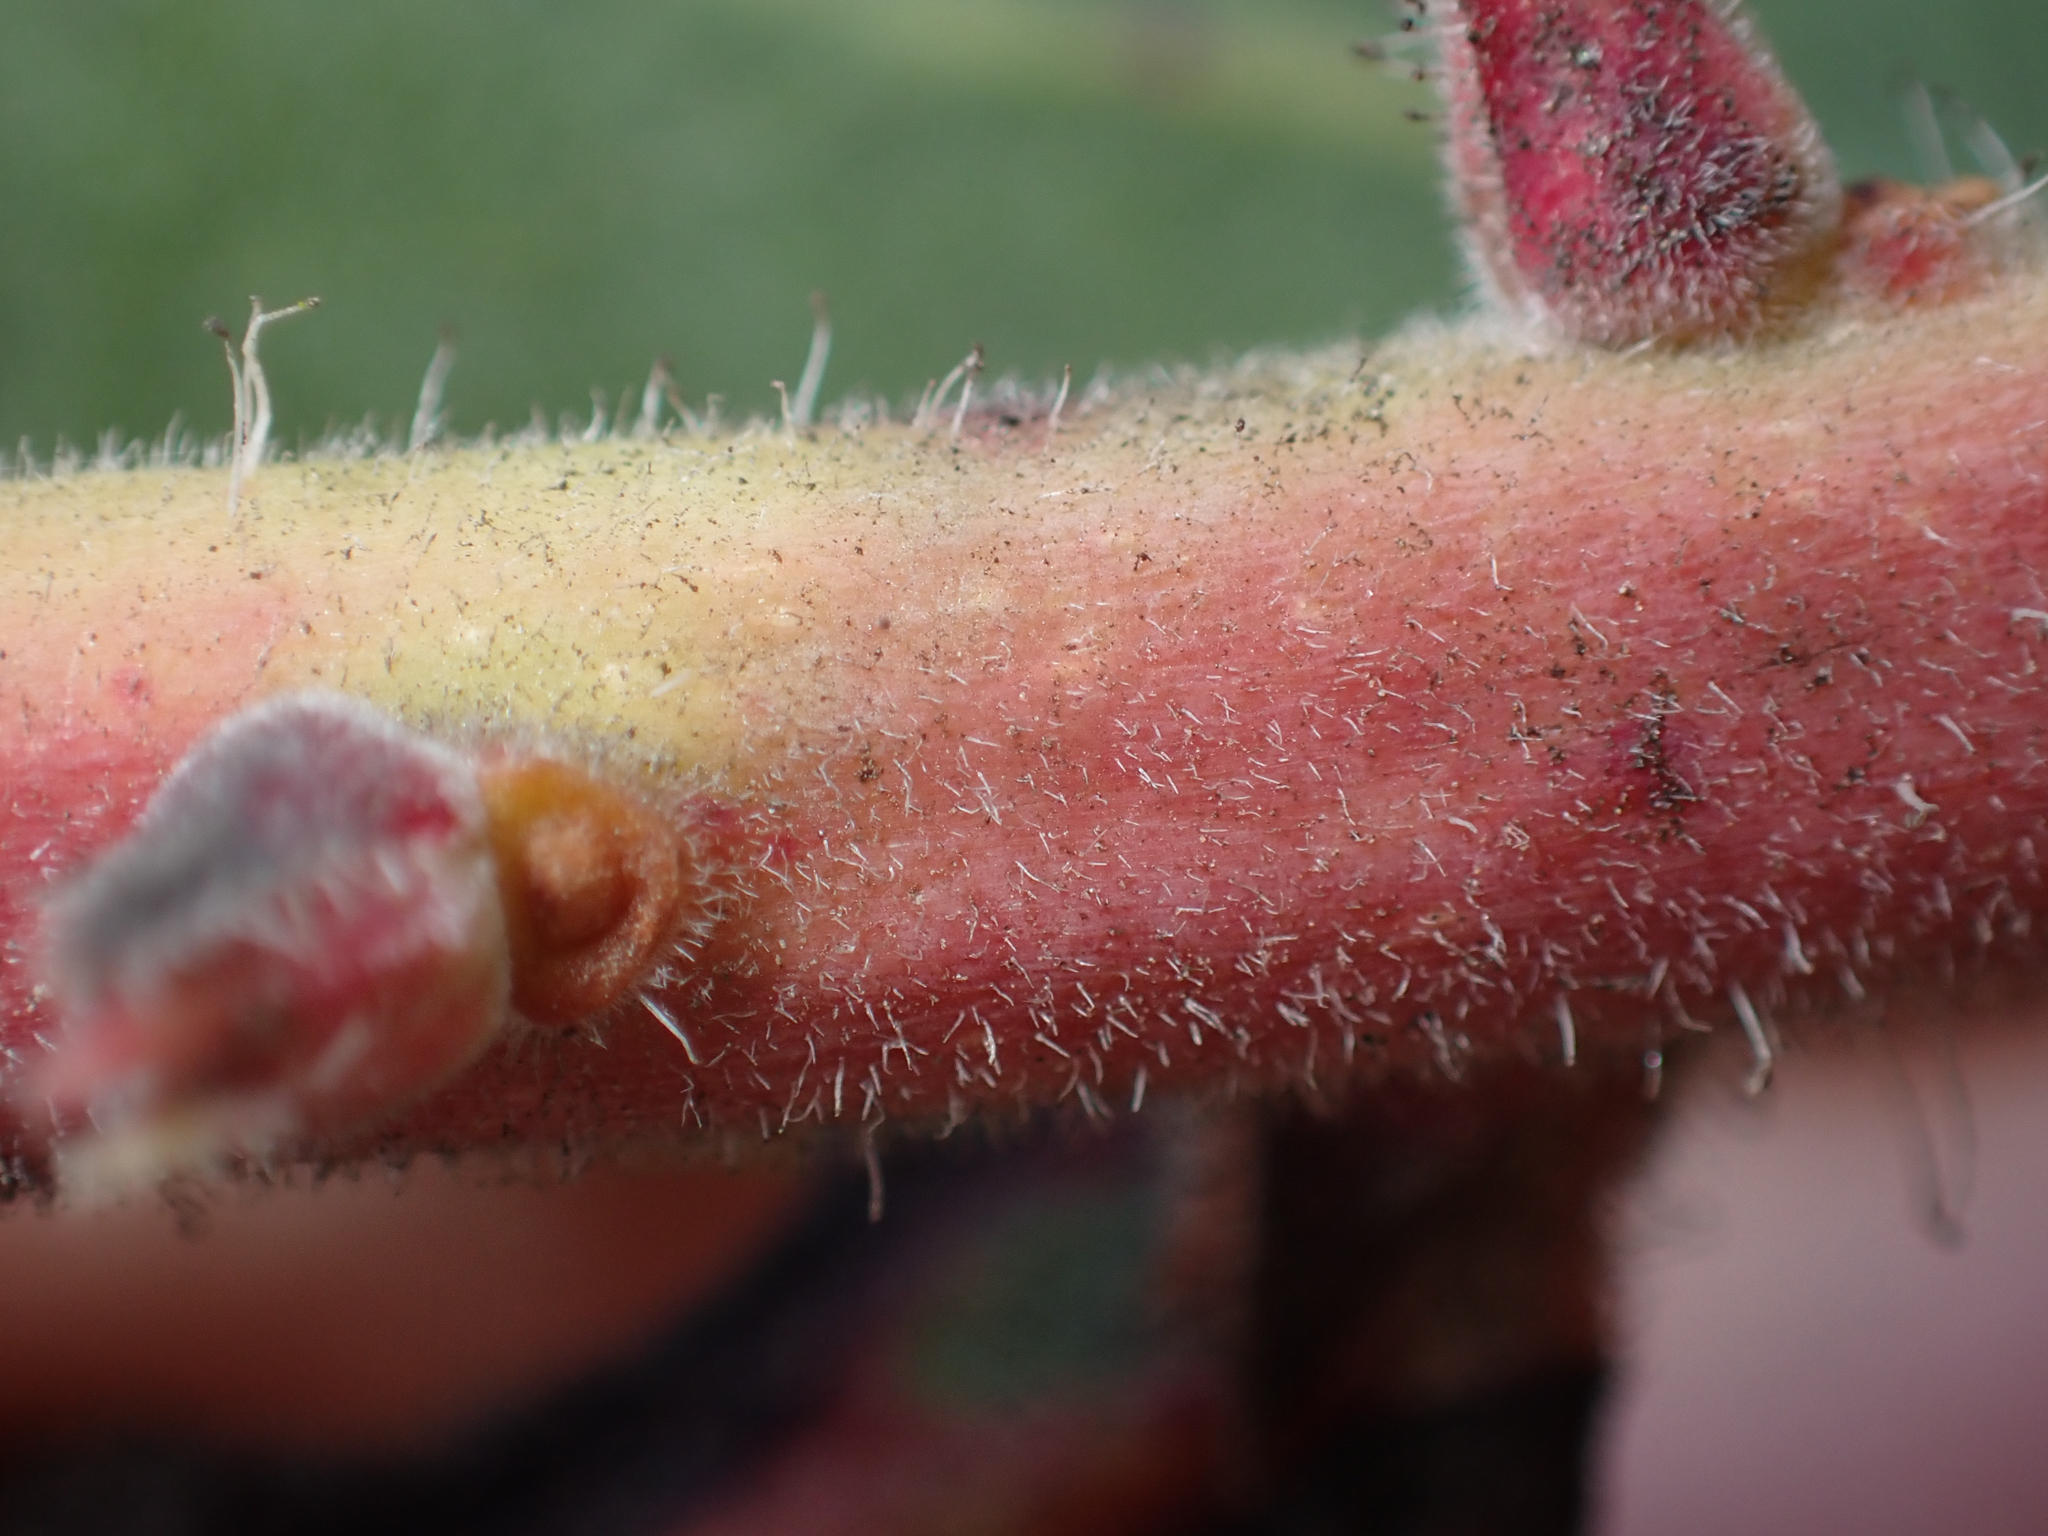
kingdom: Plantae
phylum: Tracheophyta
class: Magnoliopsida
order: Ericales
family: Ericaceae
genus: Arctostaphylos
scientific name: Arctostaphylos catalinae
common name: Santa catalina island manzanita
